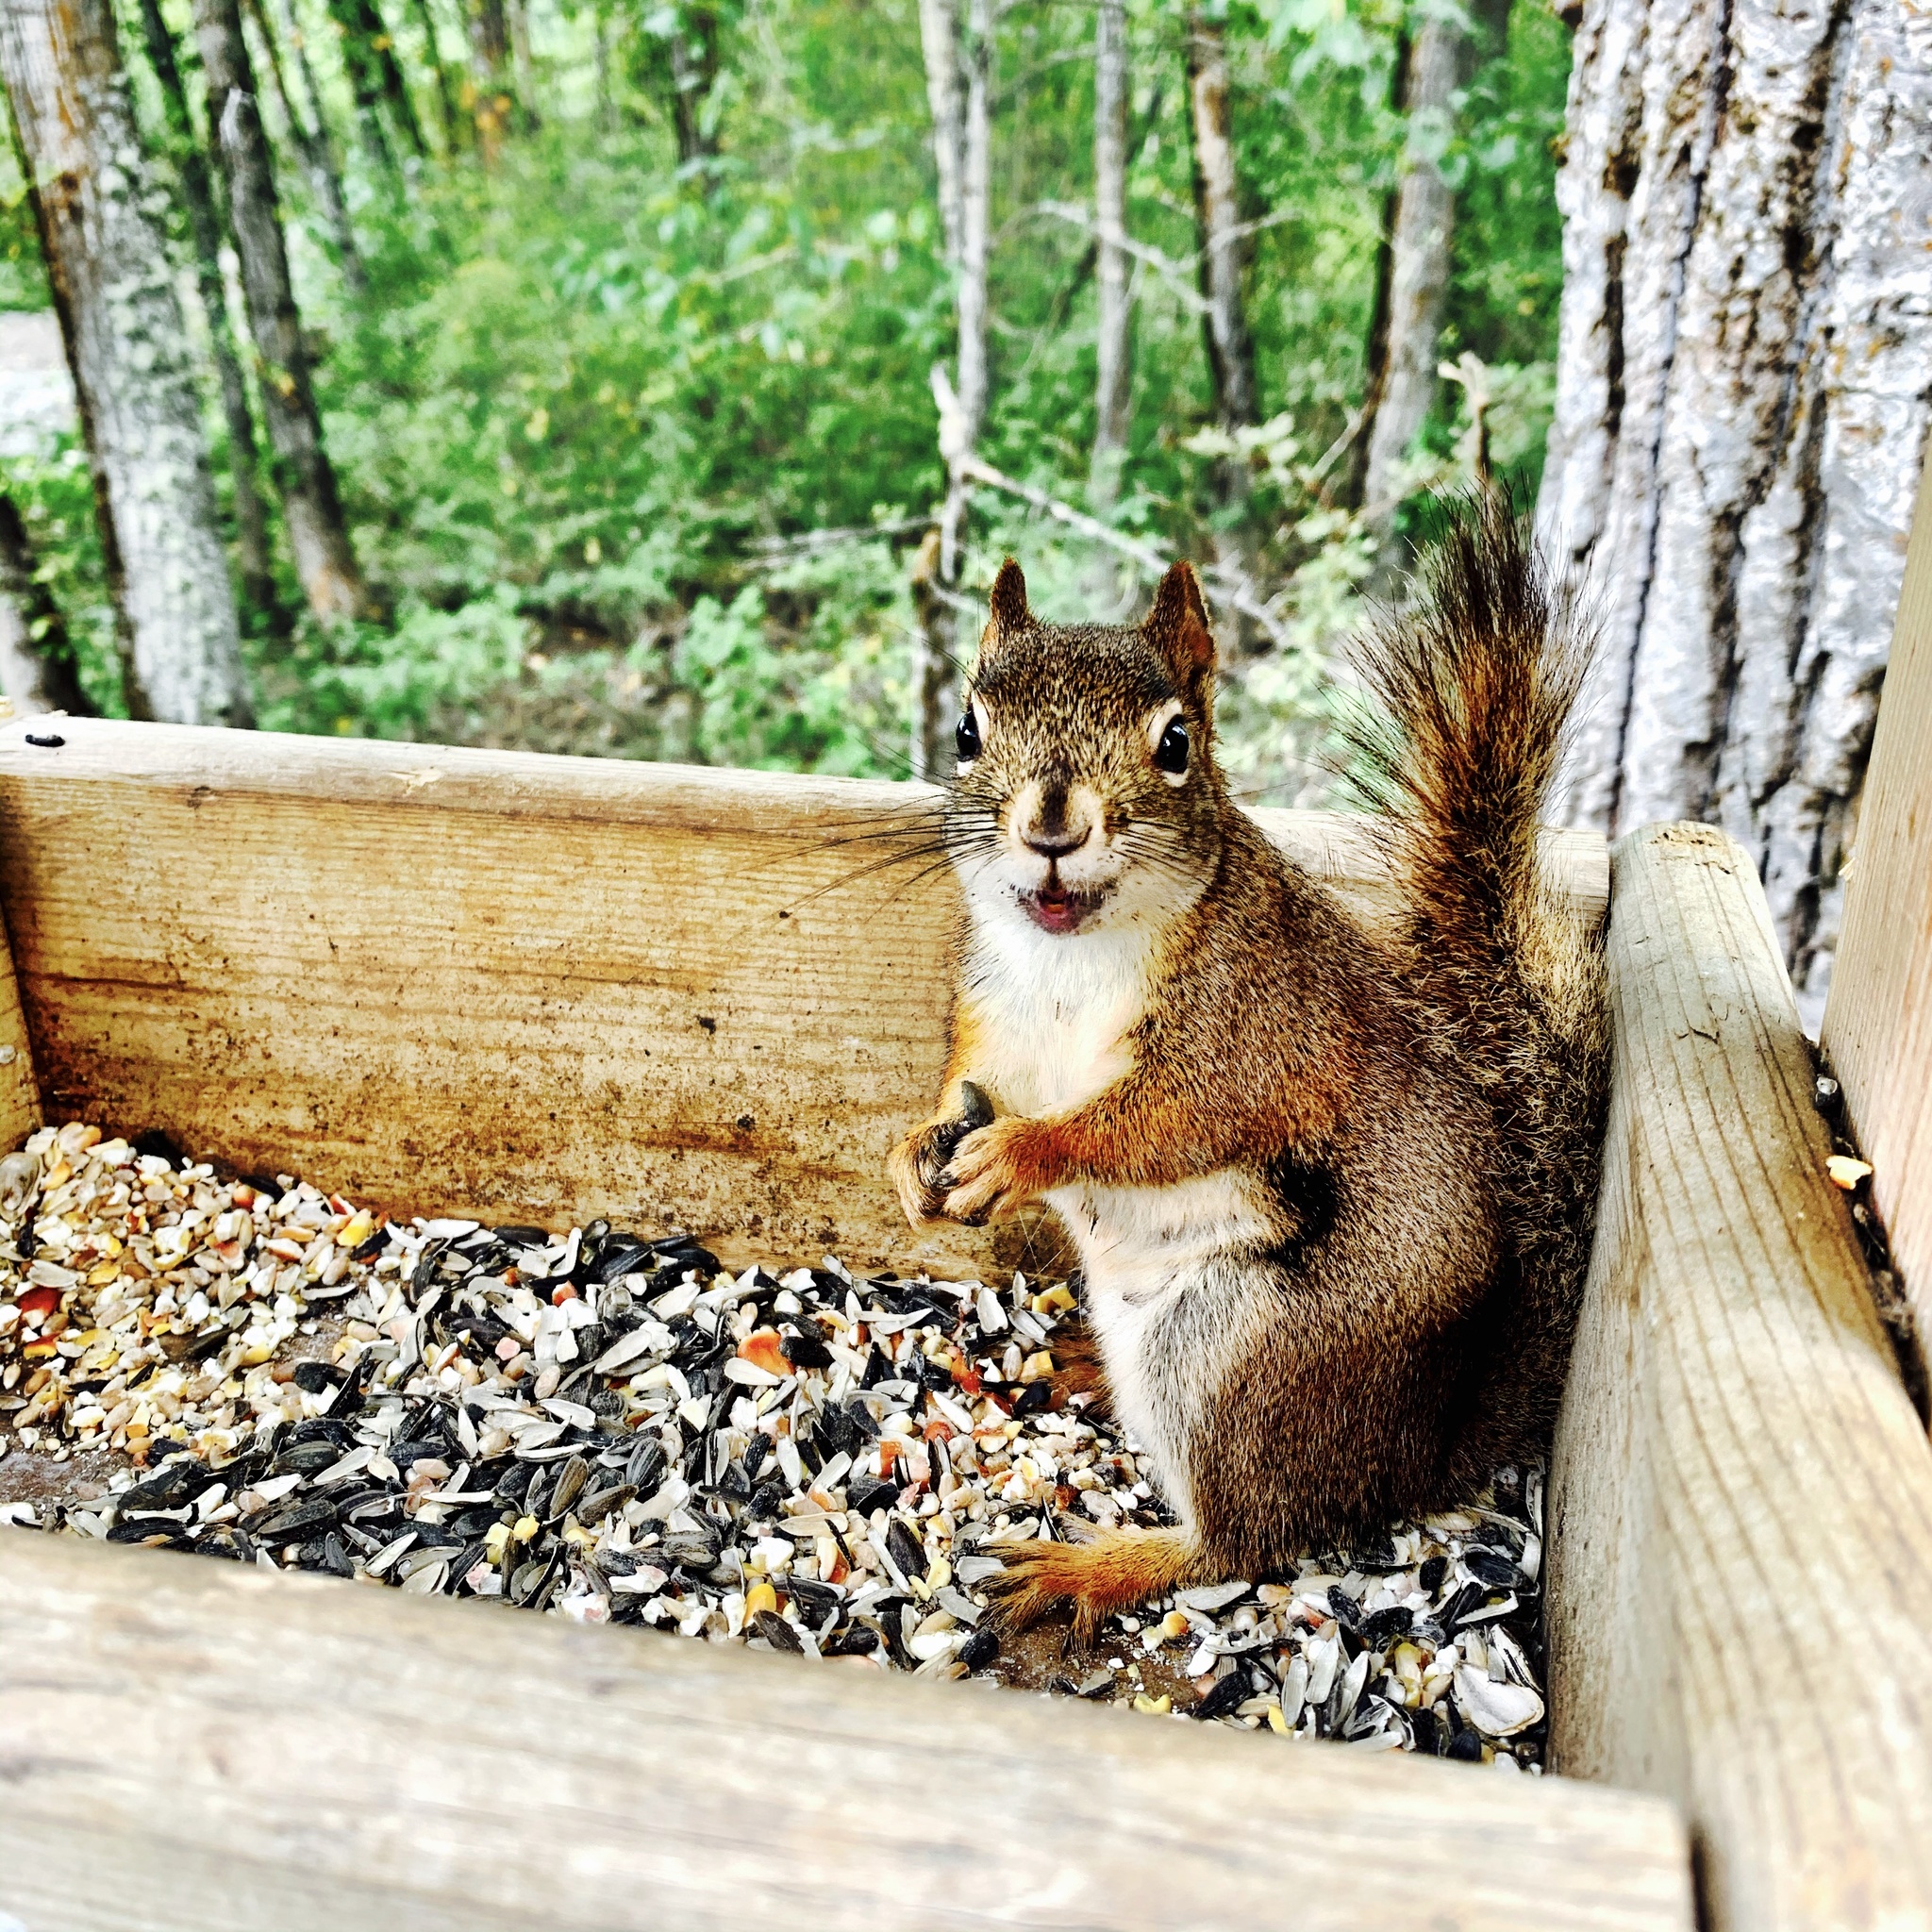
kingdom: Animalia
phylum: Chordata
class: Mammalia
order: Rodentia
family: Sciuridae
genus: Tamiasciurus
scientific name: Tamiasciurus hudsonicus
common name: Red squirrel
